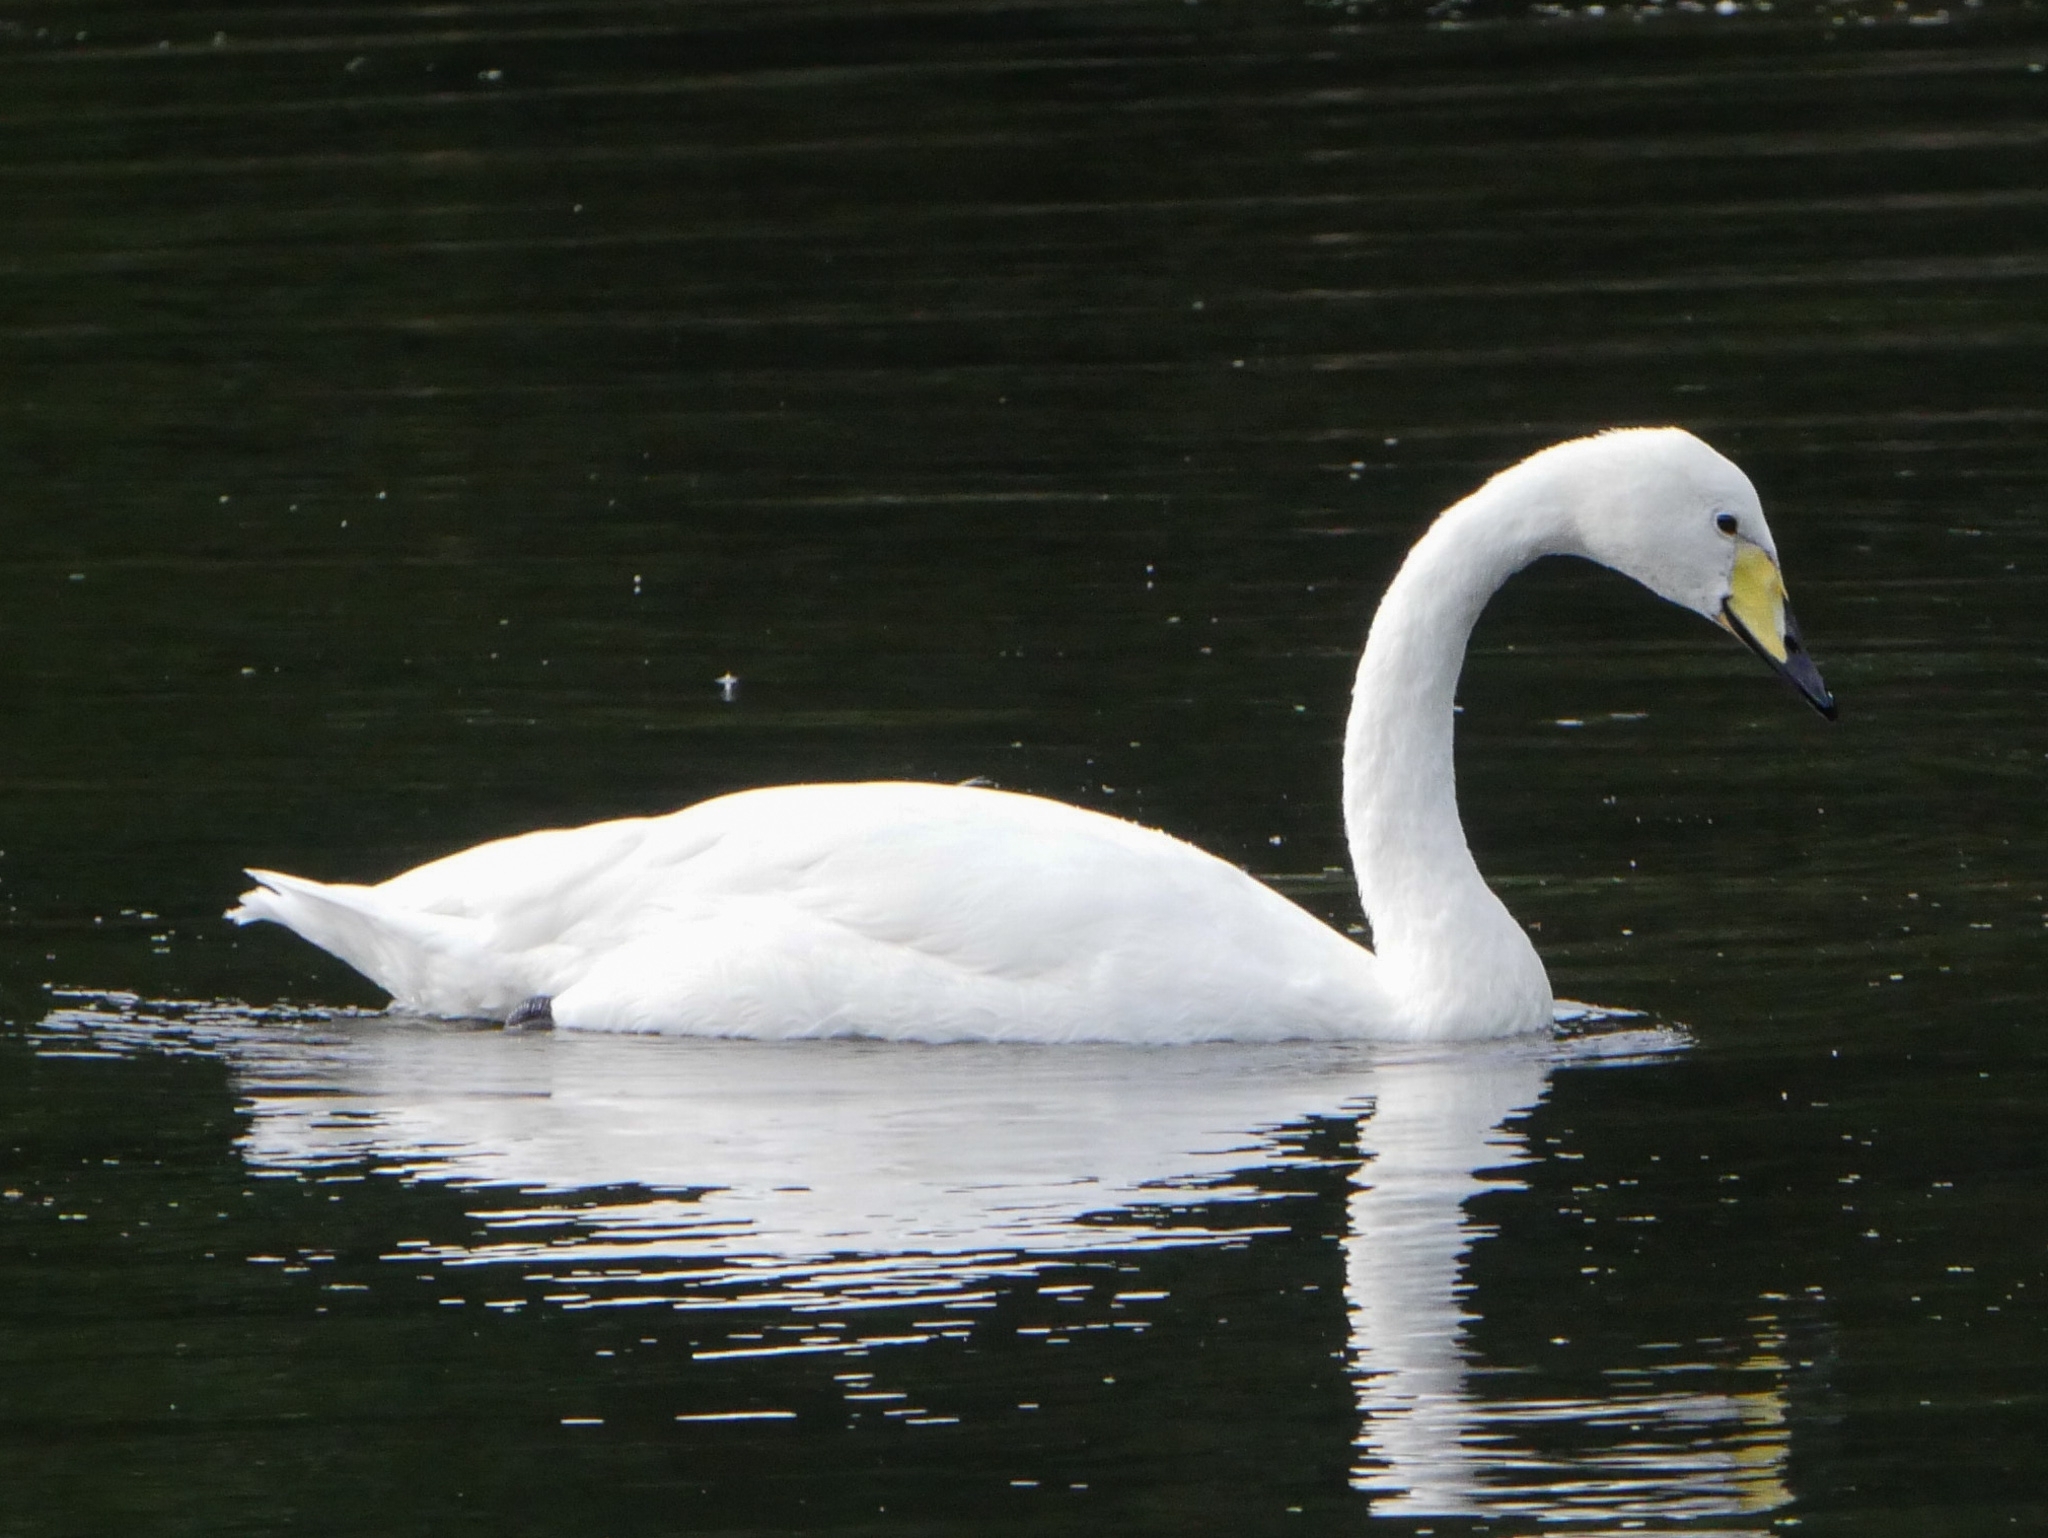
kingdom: Animalia
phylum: Chordata
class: Aves
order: Anseriformes
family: Anatidae
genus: Cygnus
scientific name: Cygnus cygnus
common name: Whooper swan
